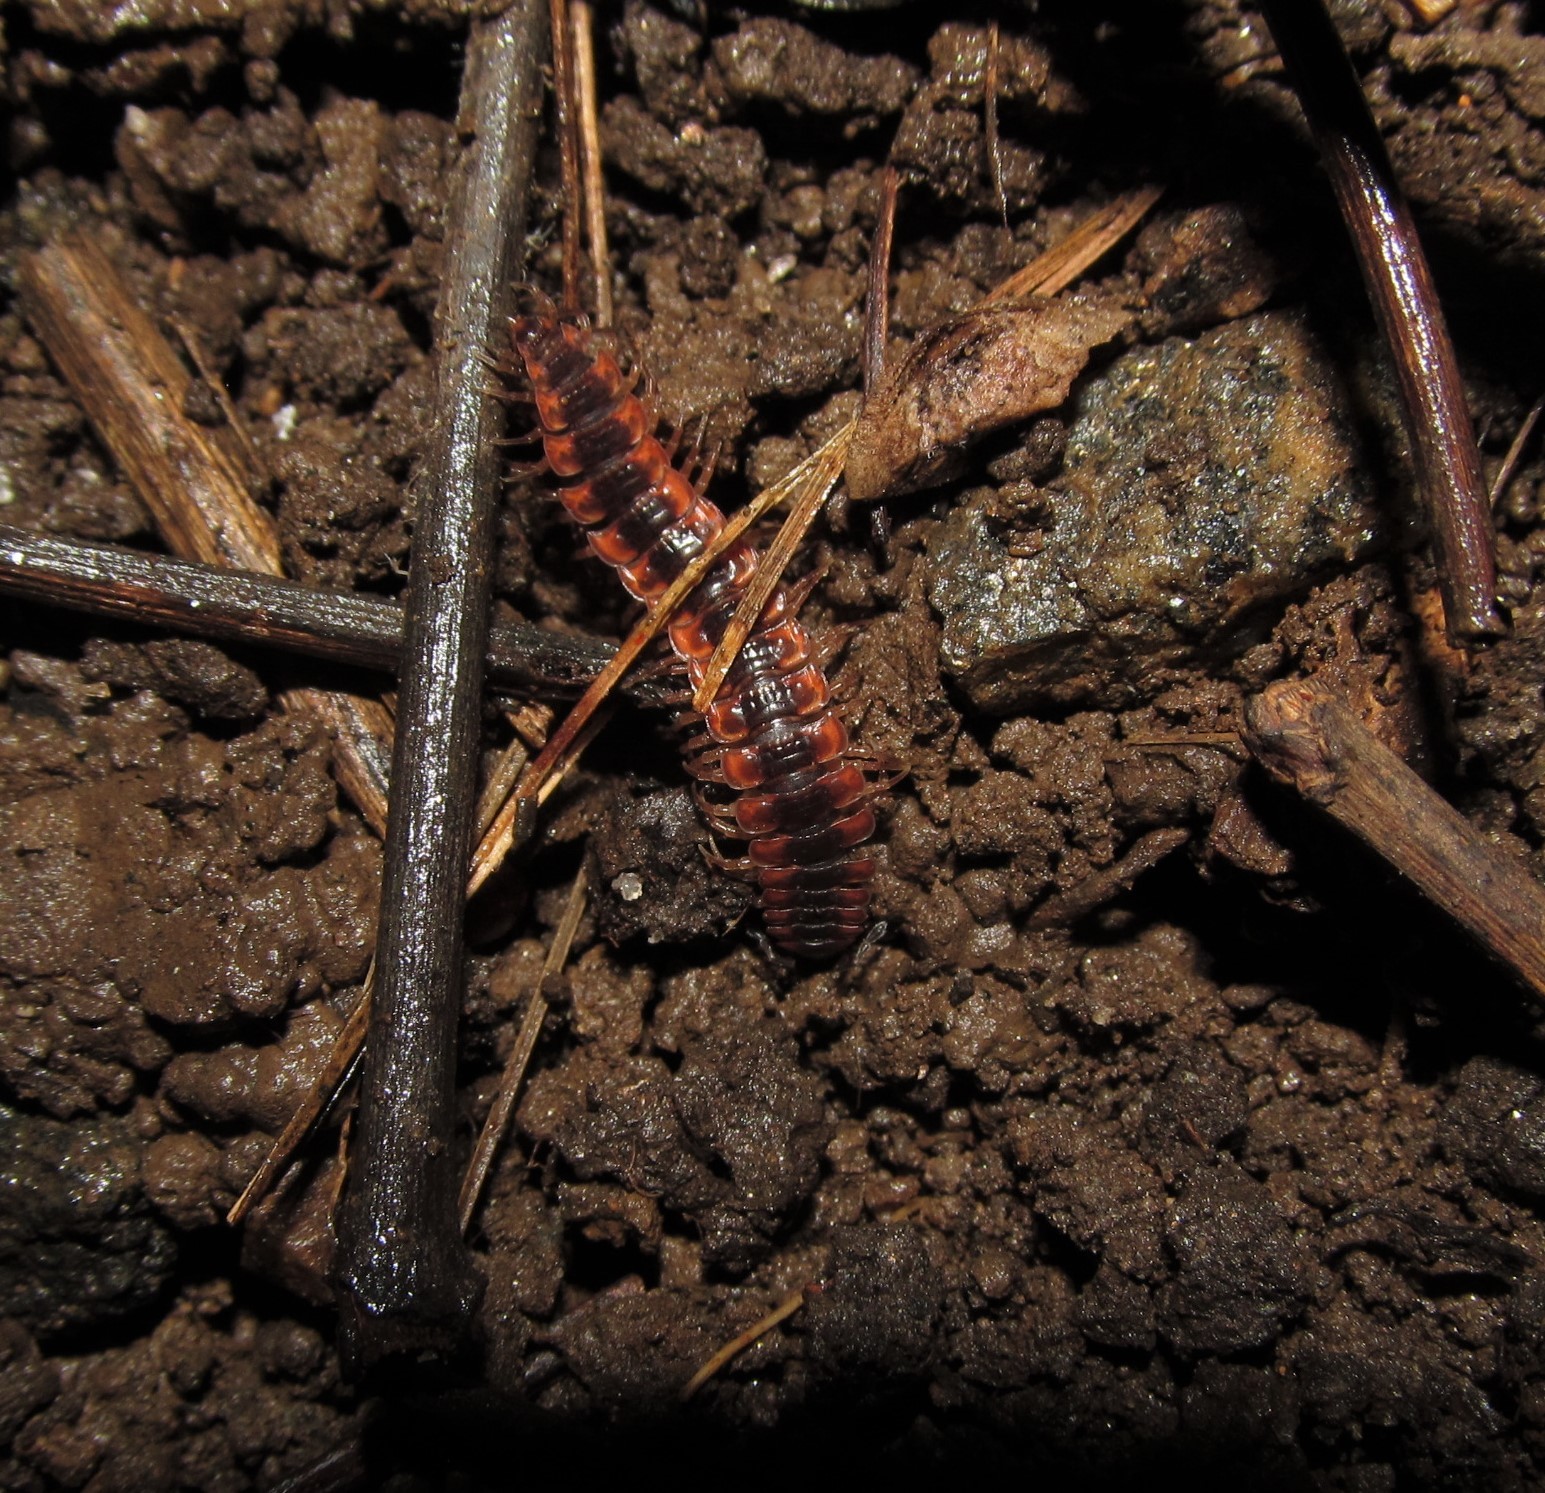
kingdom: Animalia
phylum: Arthropoda
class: Diplopoda
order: Polydesmida
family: Polydesmidae
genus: Pseudopolydesmus
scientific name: Pseudopolydesmus canadensis
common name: Canadian flat-back millipede
